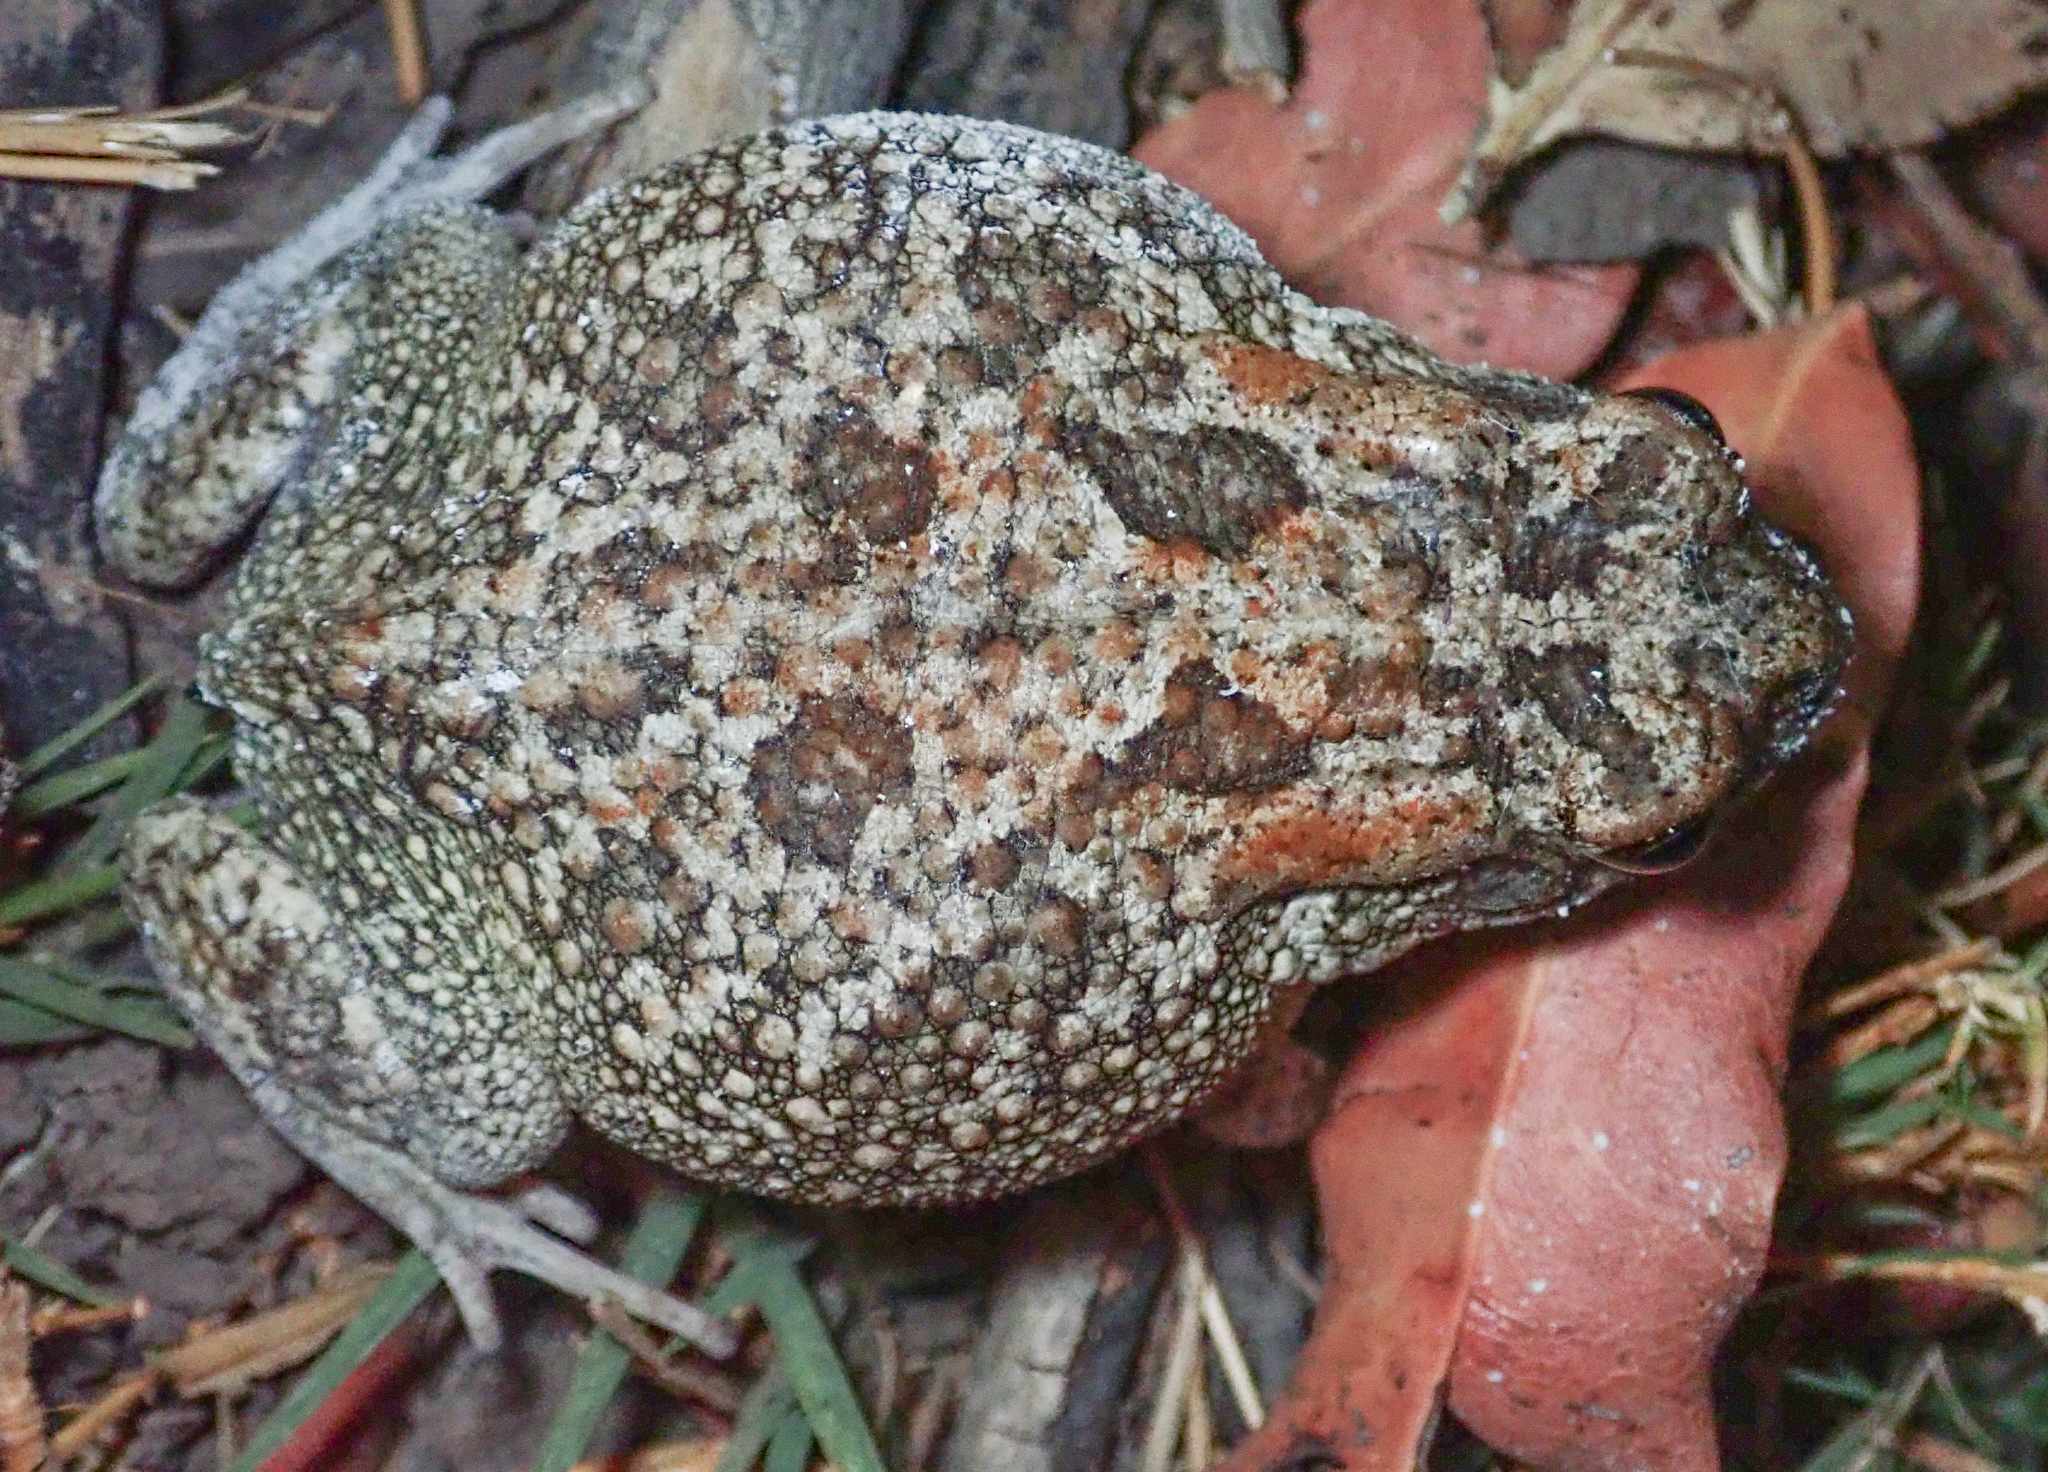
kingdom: Animalia
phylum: Chordata
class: Amphibia
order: Anura
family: Bufonidae
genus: Sclerophrys
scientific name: Sclerophrys pusilla
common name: Merten's striped toad
